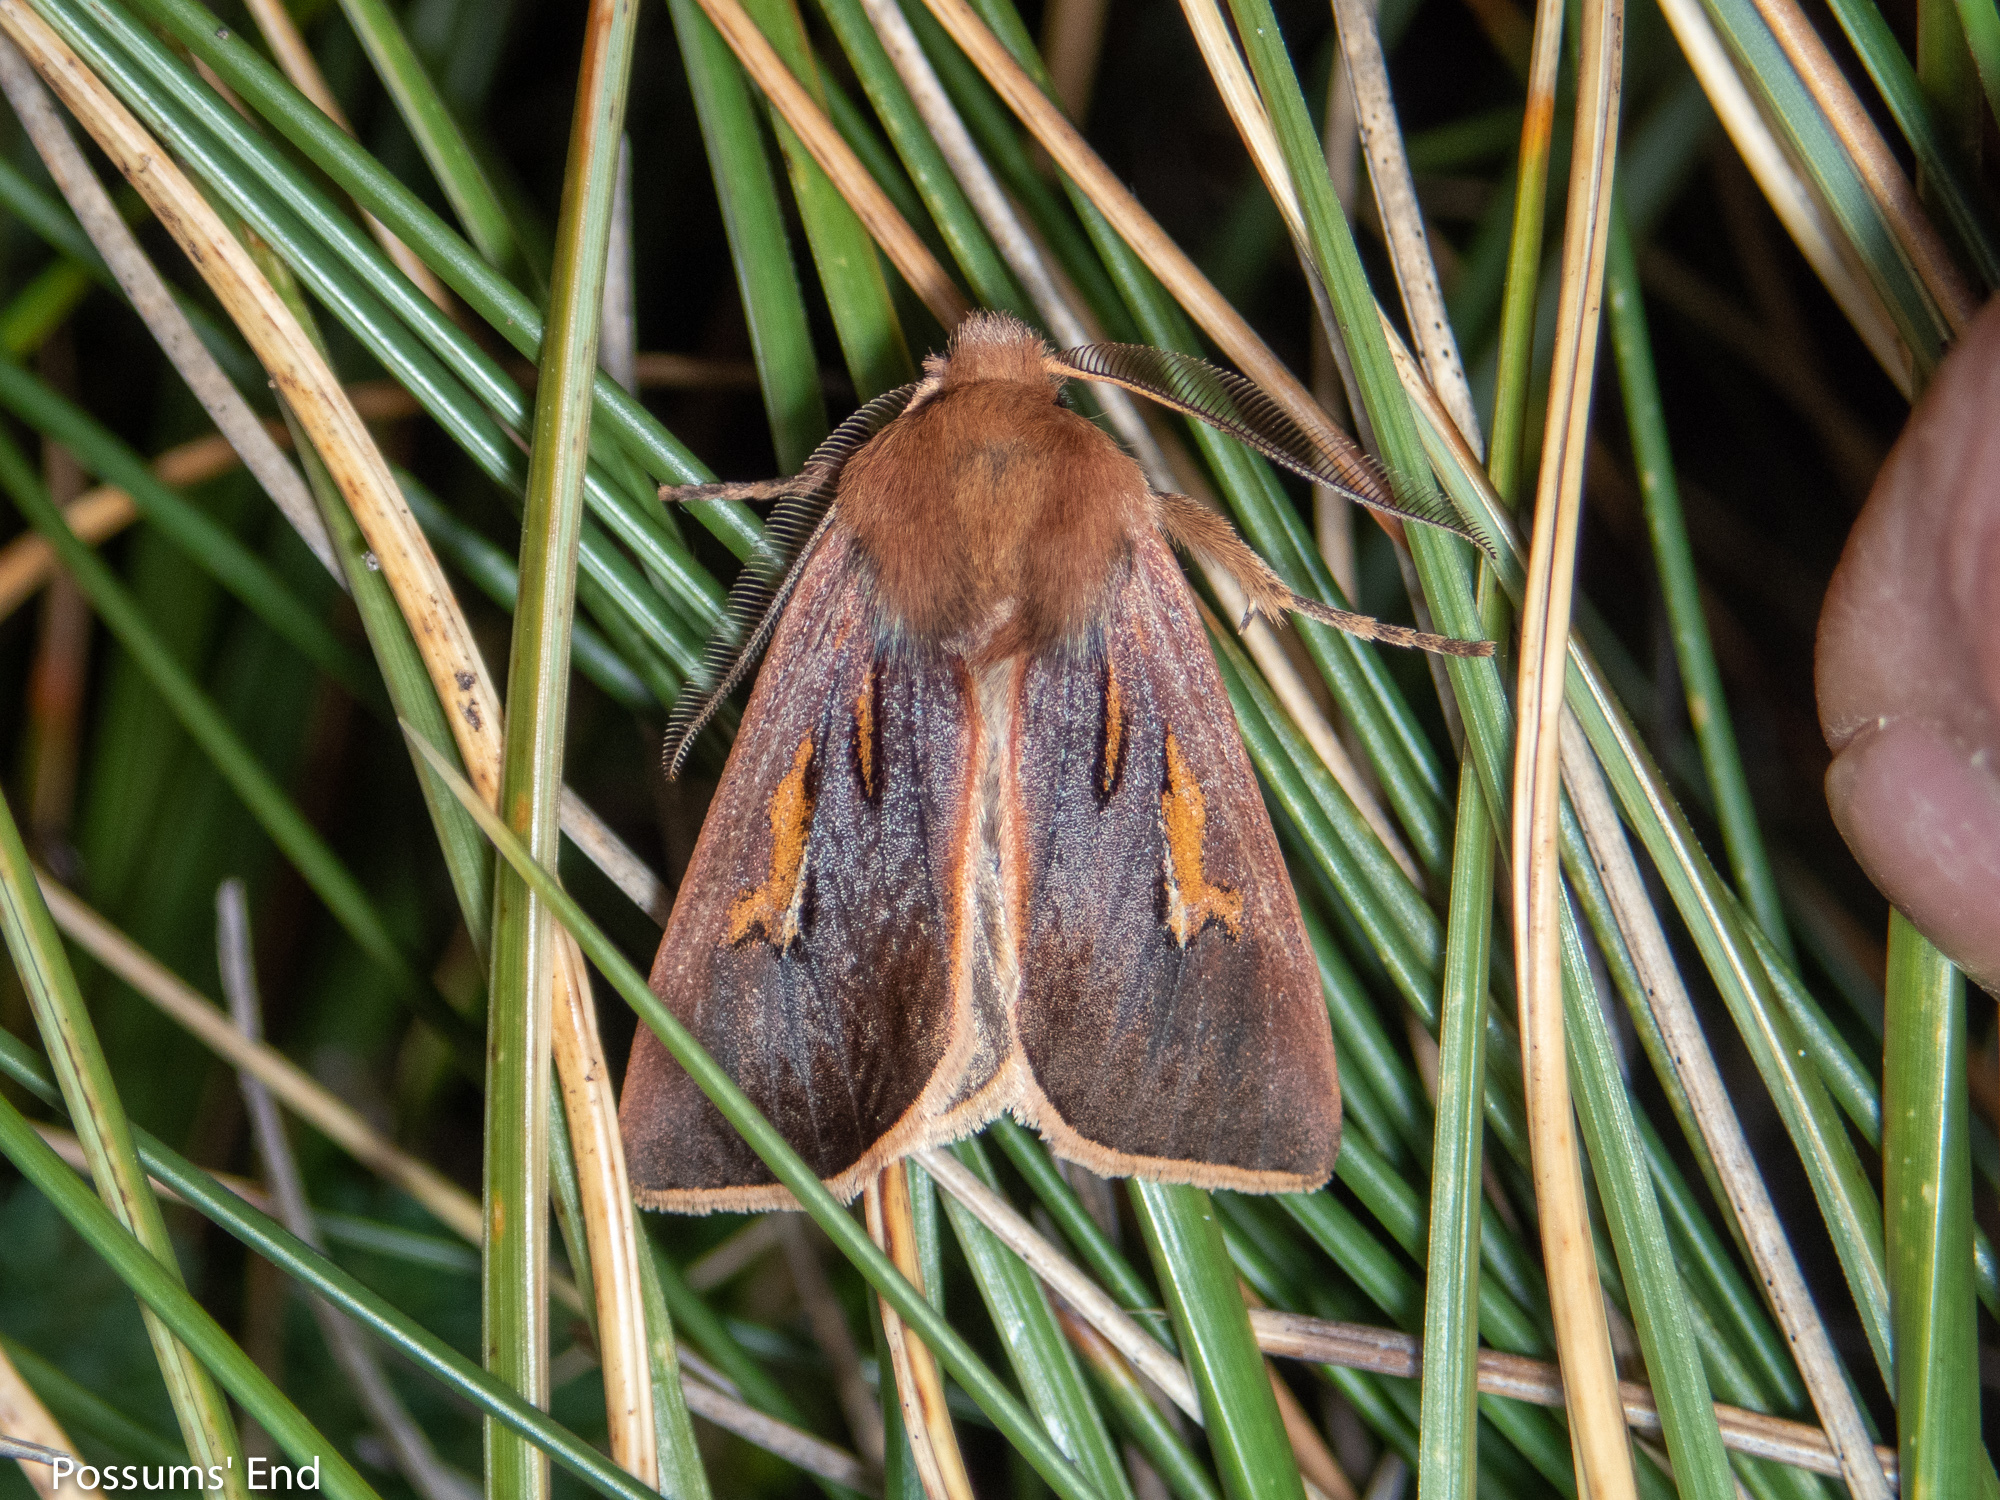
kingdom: Animalia
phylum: Arthropoda
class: Insecta
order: Lepidoptera
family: Noctuidae
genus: Ichneutica
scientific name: Ichneutica dione
